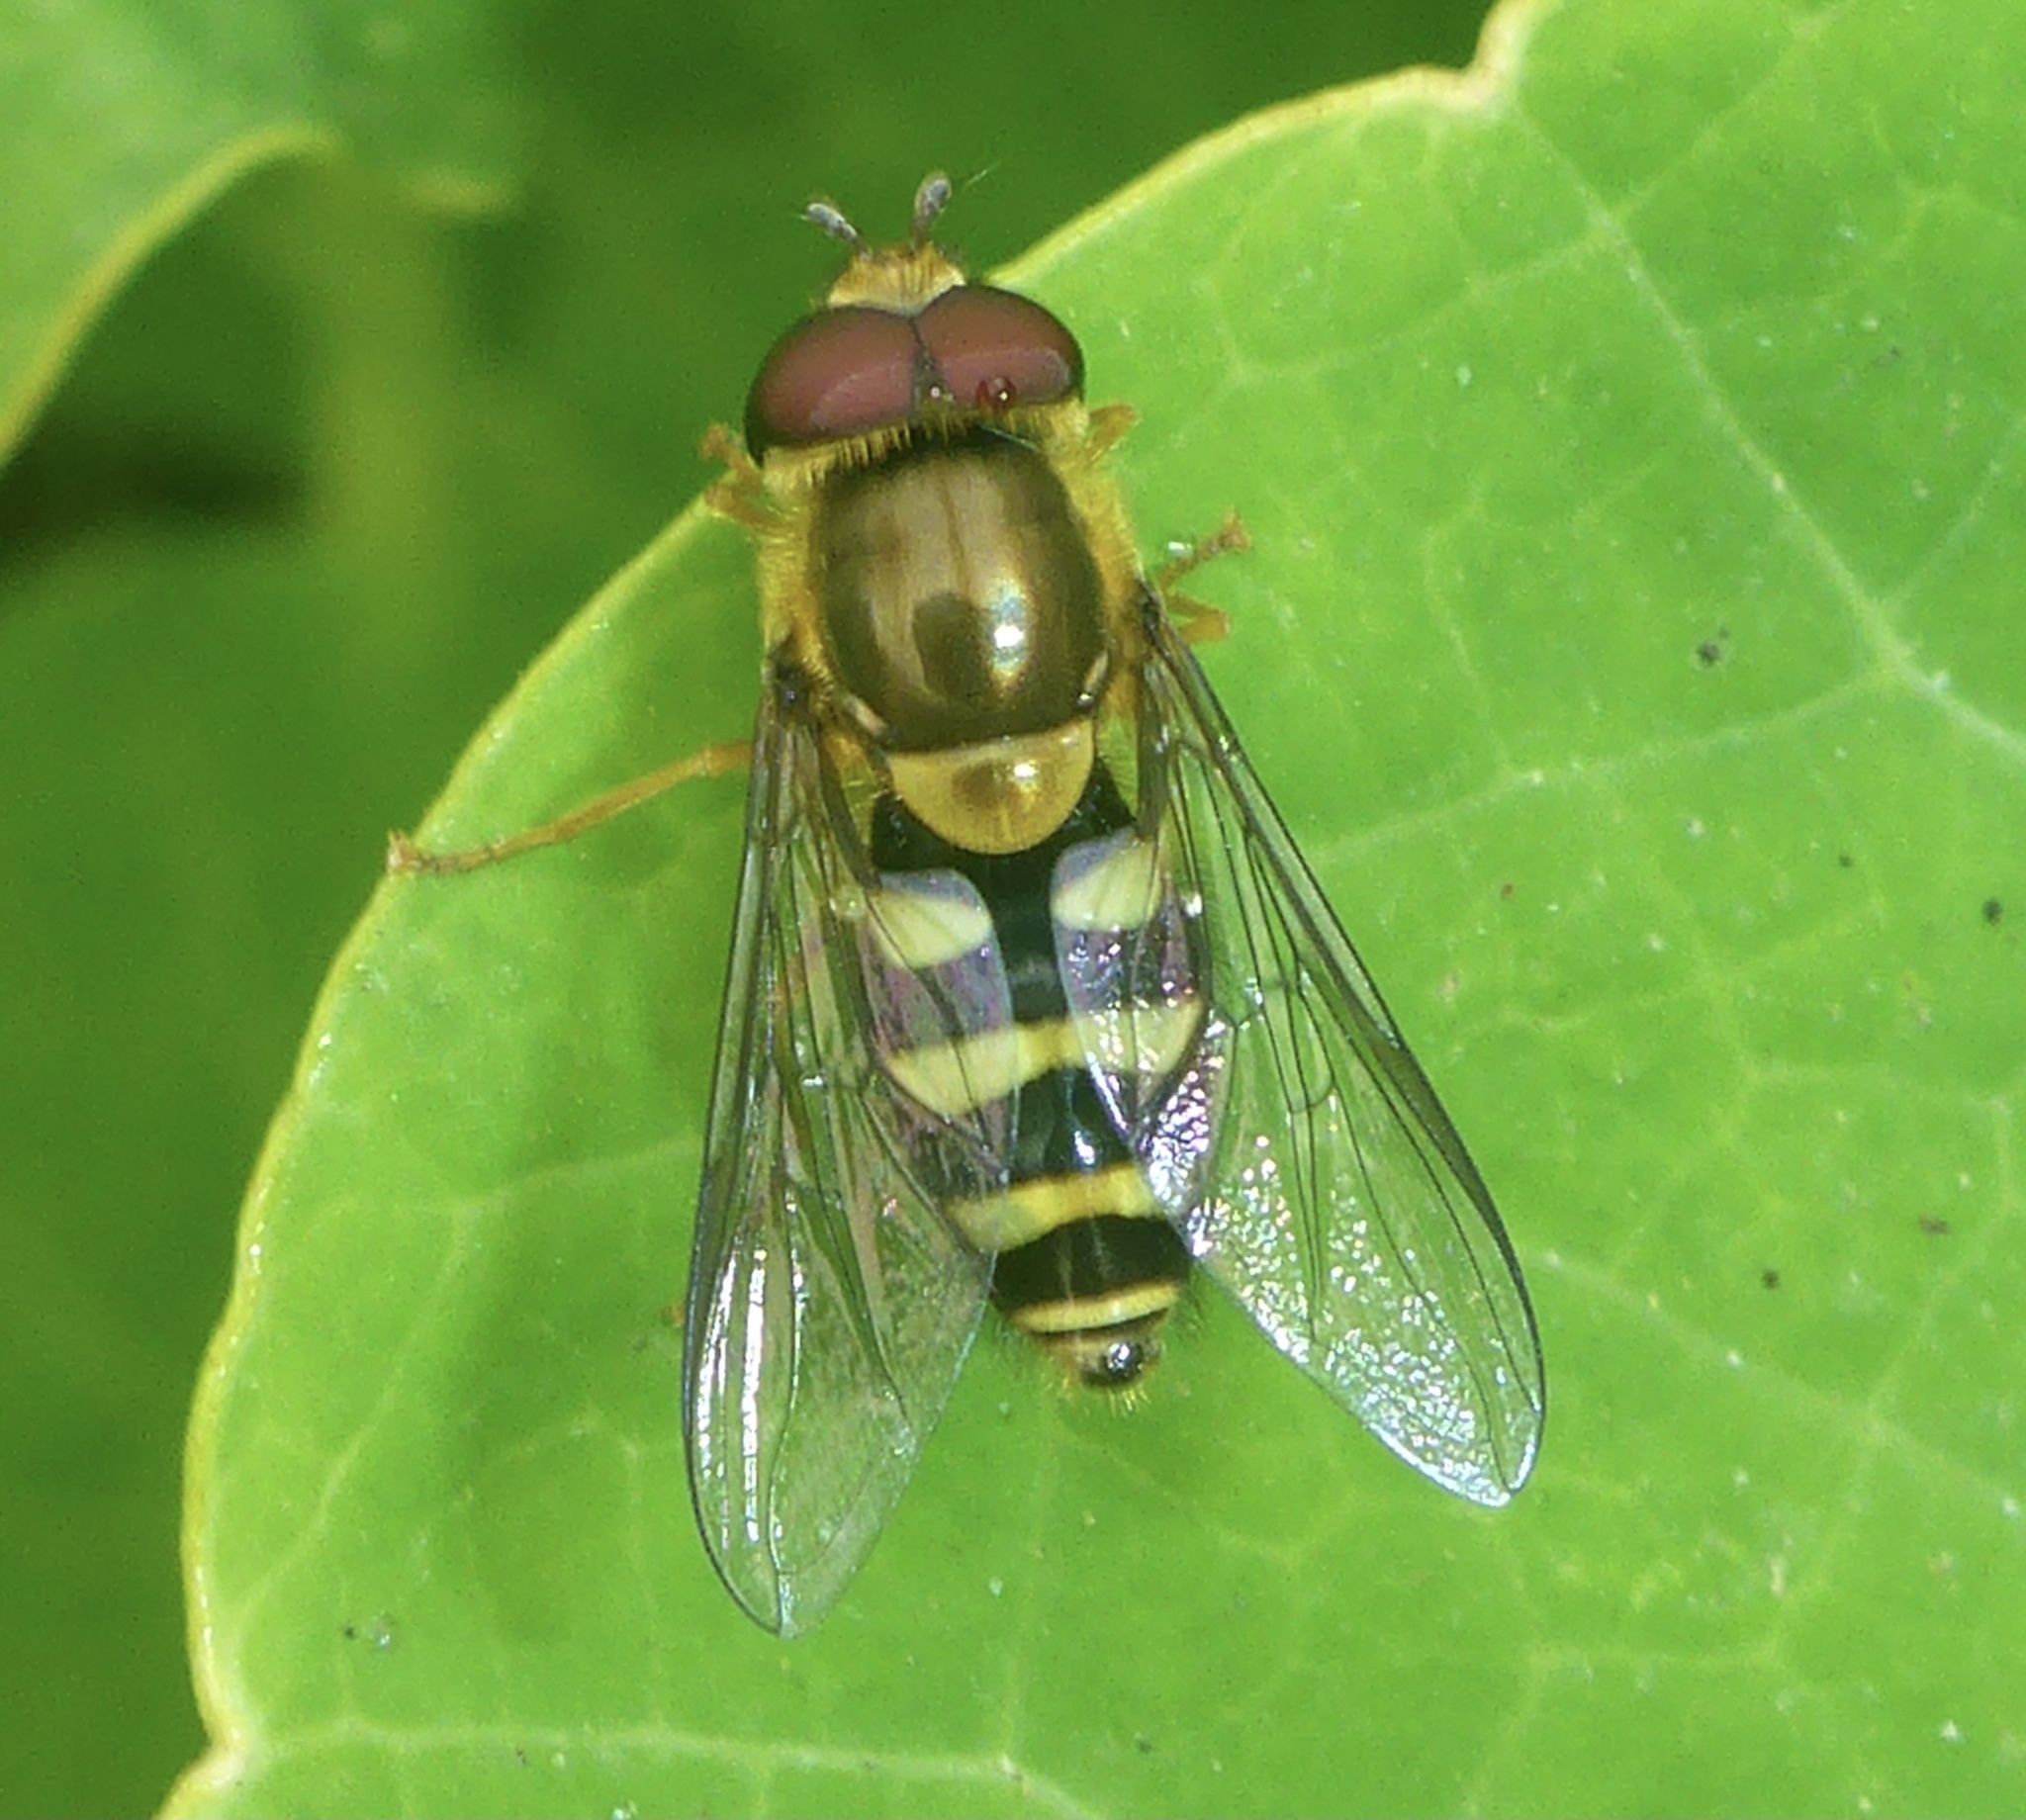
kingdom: Animalia
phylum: Arthropoda
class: Insecta
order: Diptera
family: Syrphidae
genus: Syrphus
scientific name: Syrphus opinator
